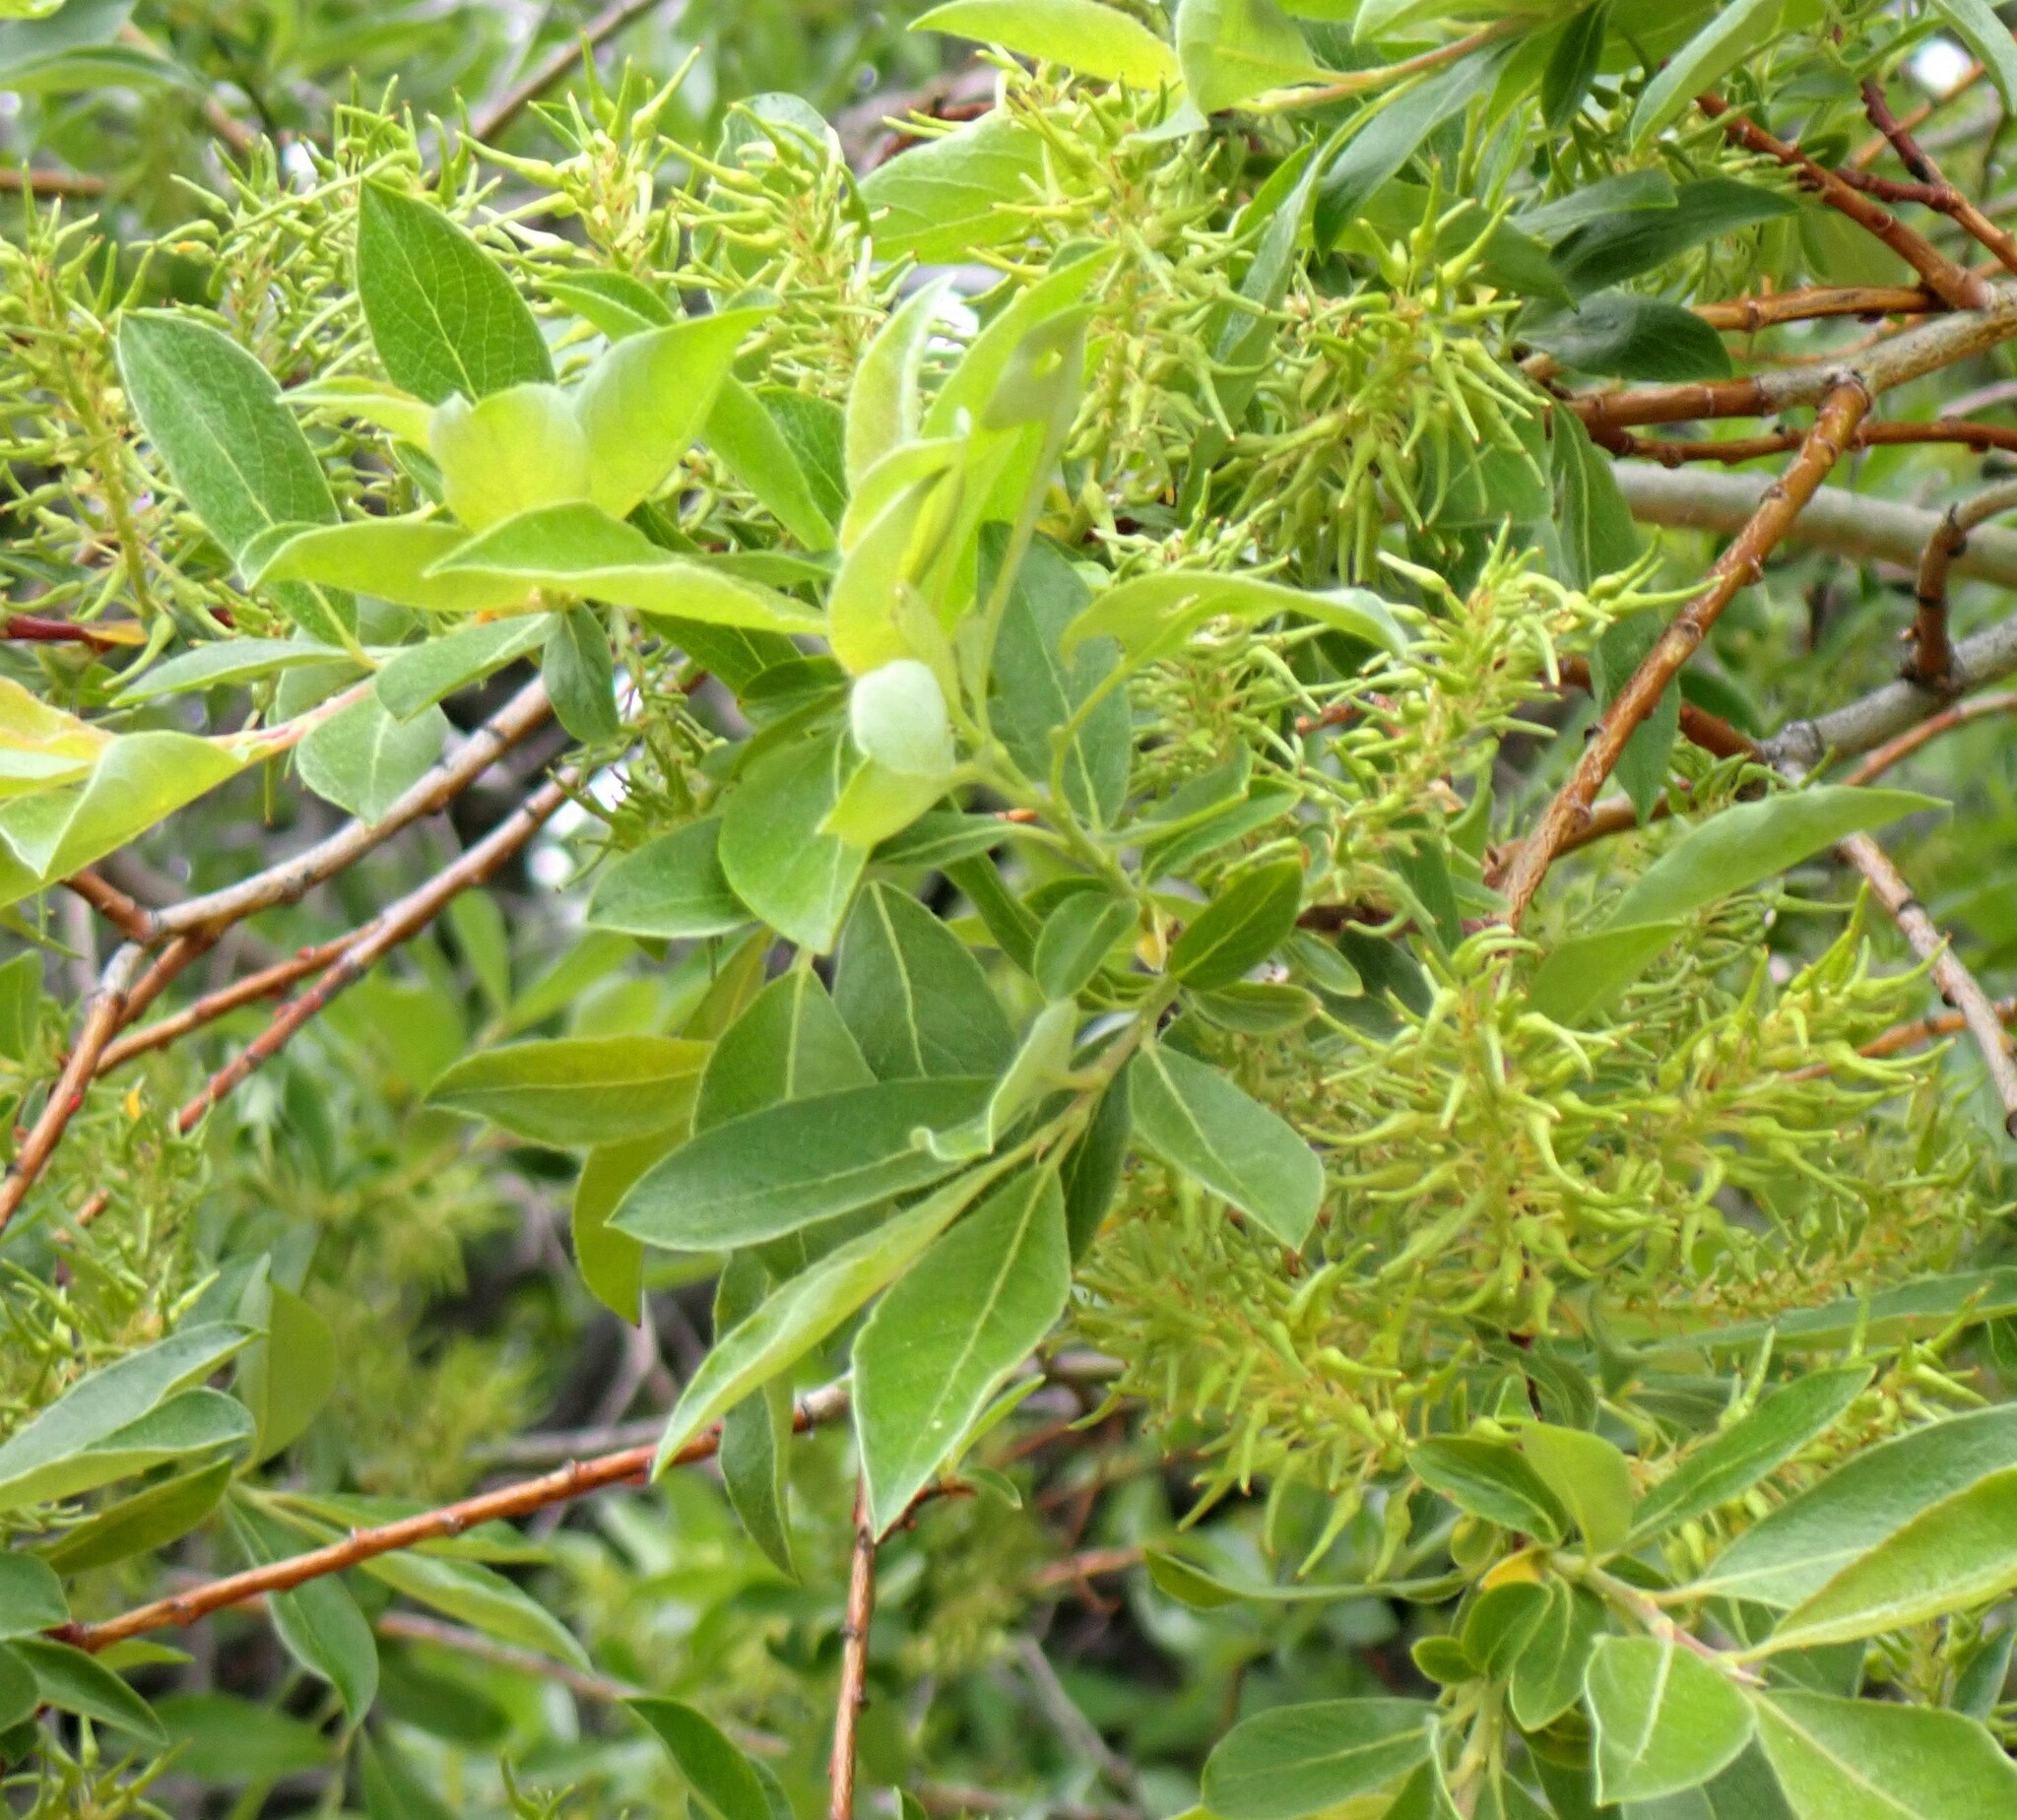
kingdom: Plantae
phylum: Tracheophyta
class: Magnoliopsida
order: Malpighiales
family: Salicaceae
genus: Salix
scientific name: Salix bebbiana
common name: Bebb's willow
